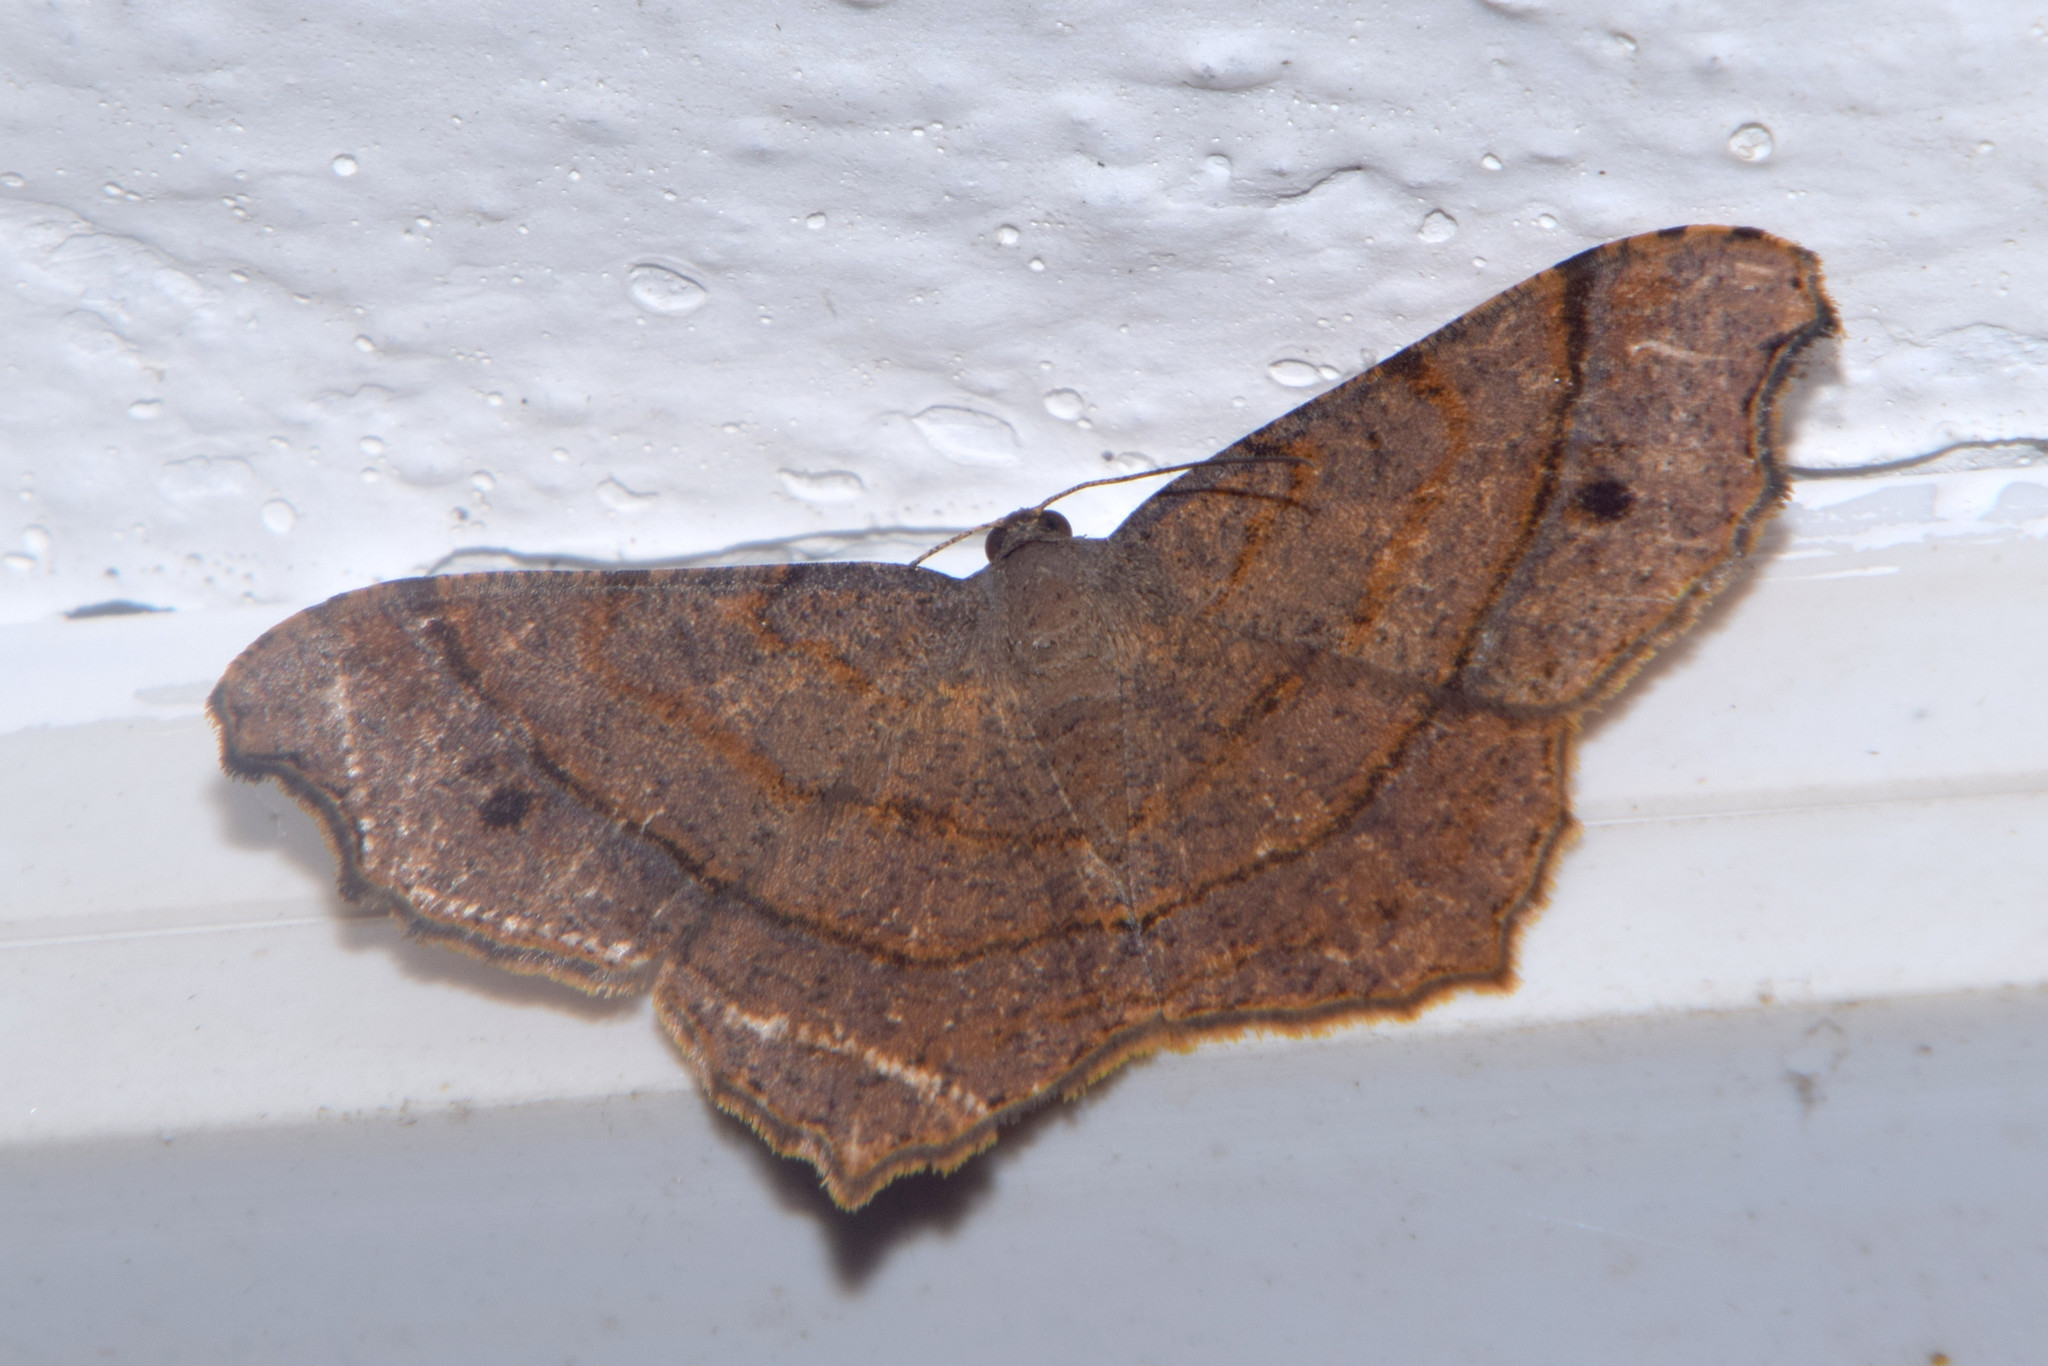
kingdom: Animalia
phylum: Arthropoda
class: Insecta
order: Lepidoptera
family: Geometridae
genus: Chiasmia
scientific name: Chiasmia perfusaria
